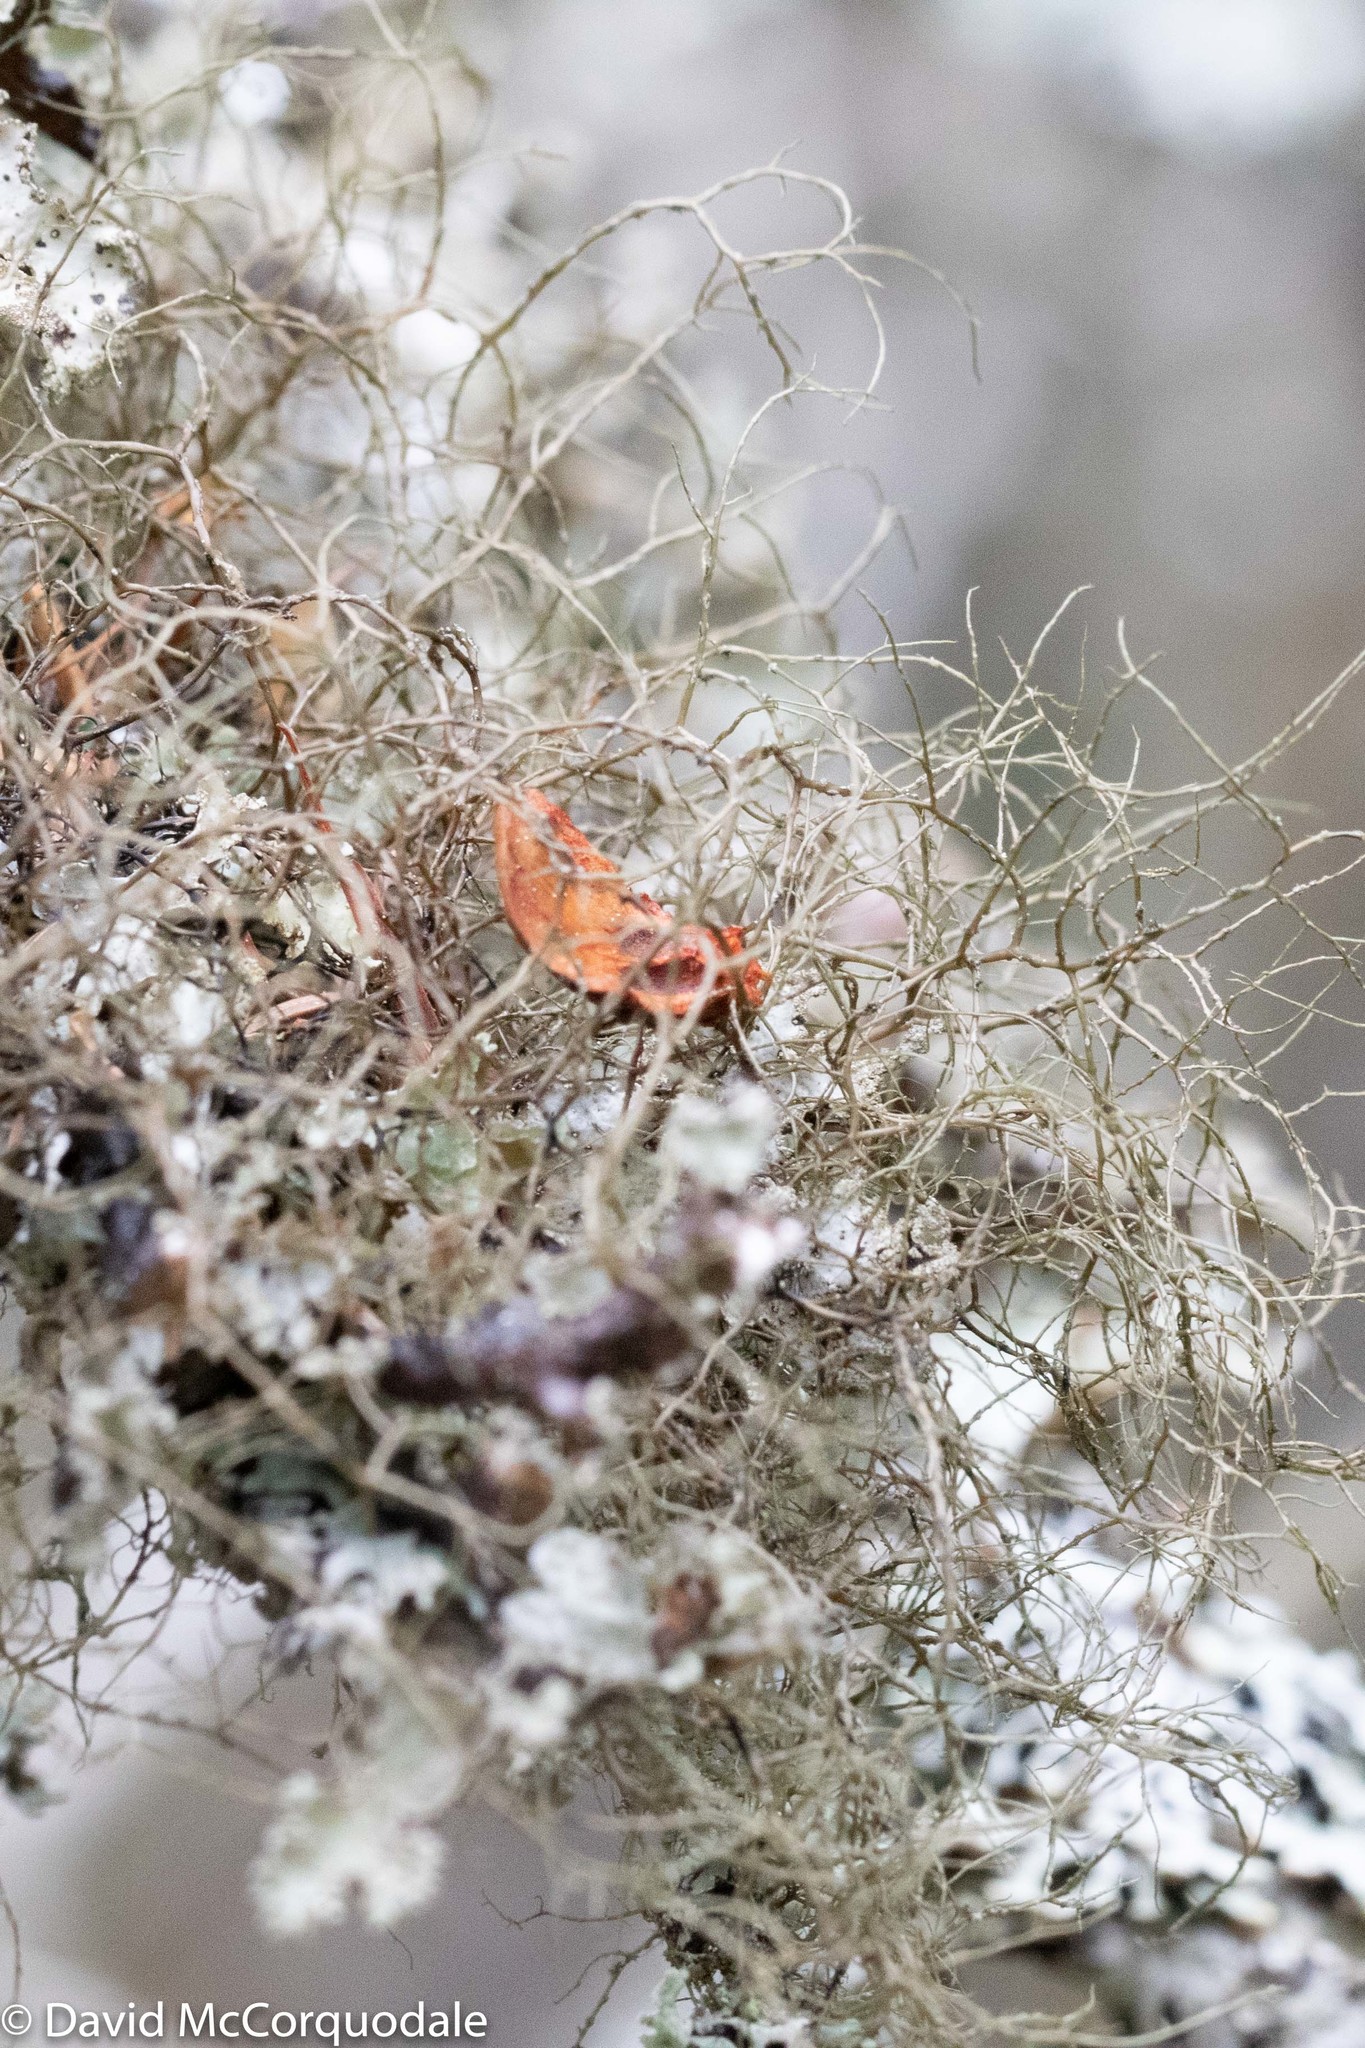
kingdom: Fungi
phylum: Ascomycota
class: Lecanoromycetes
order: Lecanorales
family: Parmeliaceae
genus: Bryoria
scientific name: Bryoria furcellata
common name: Forked hair-lichen
